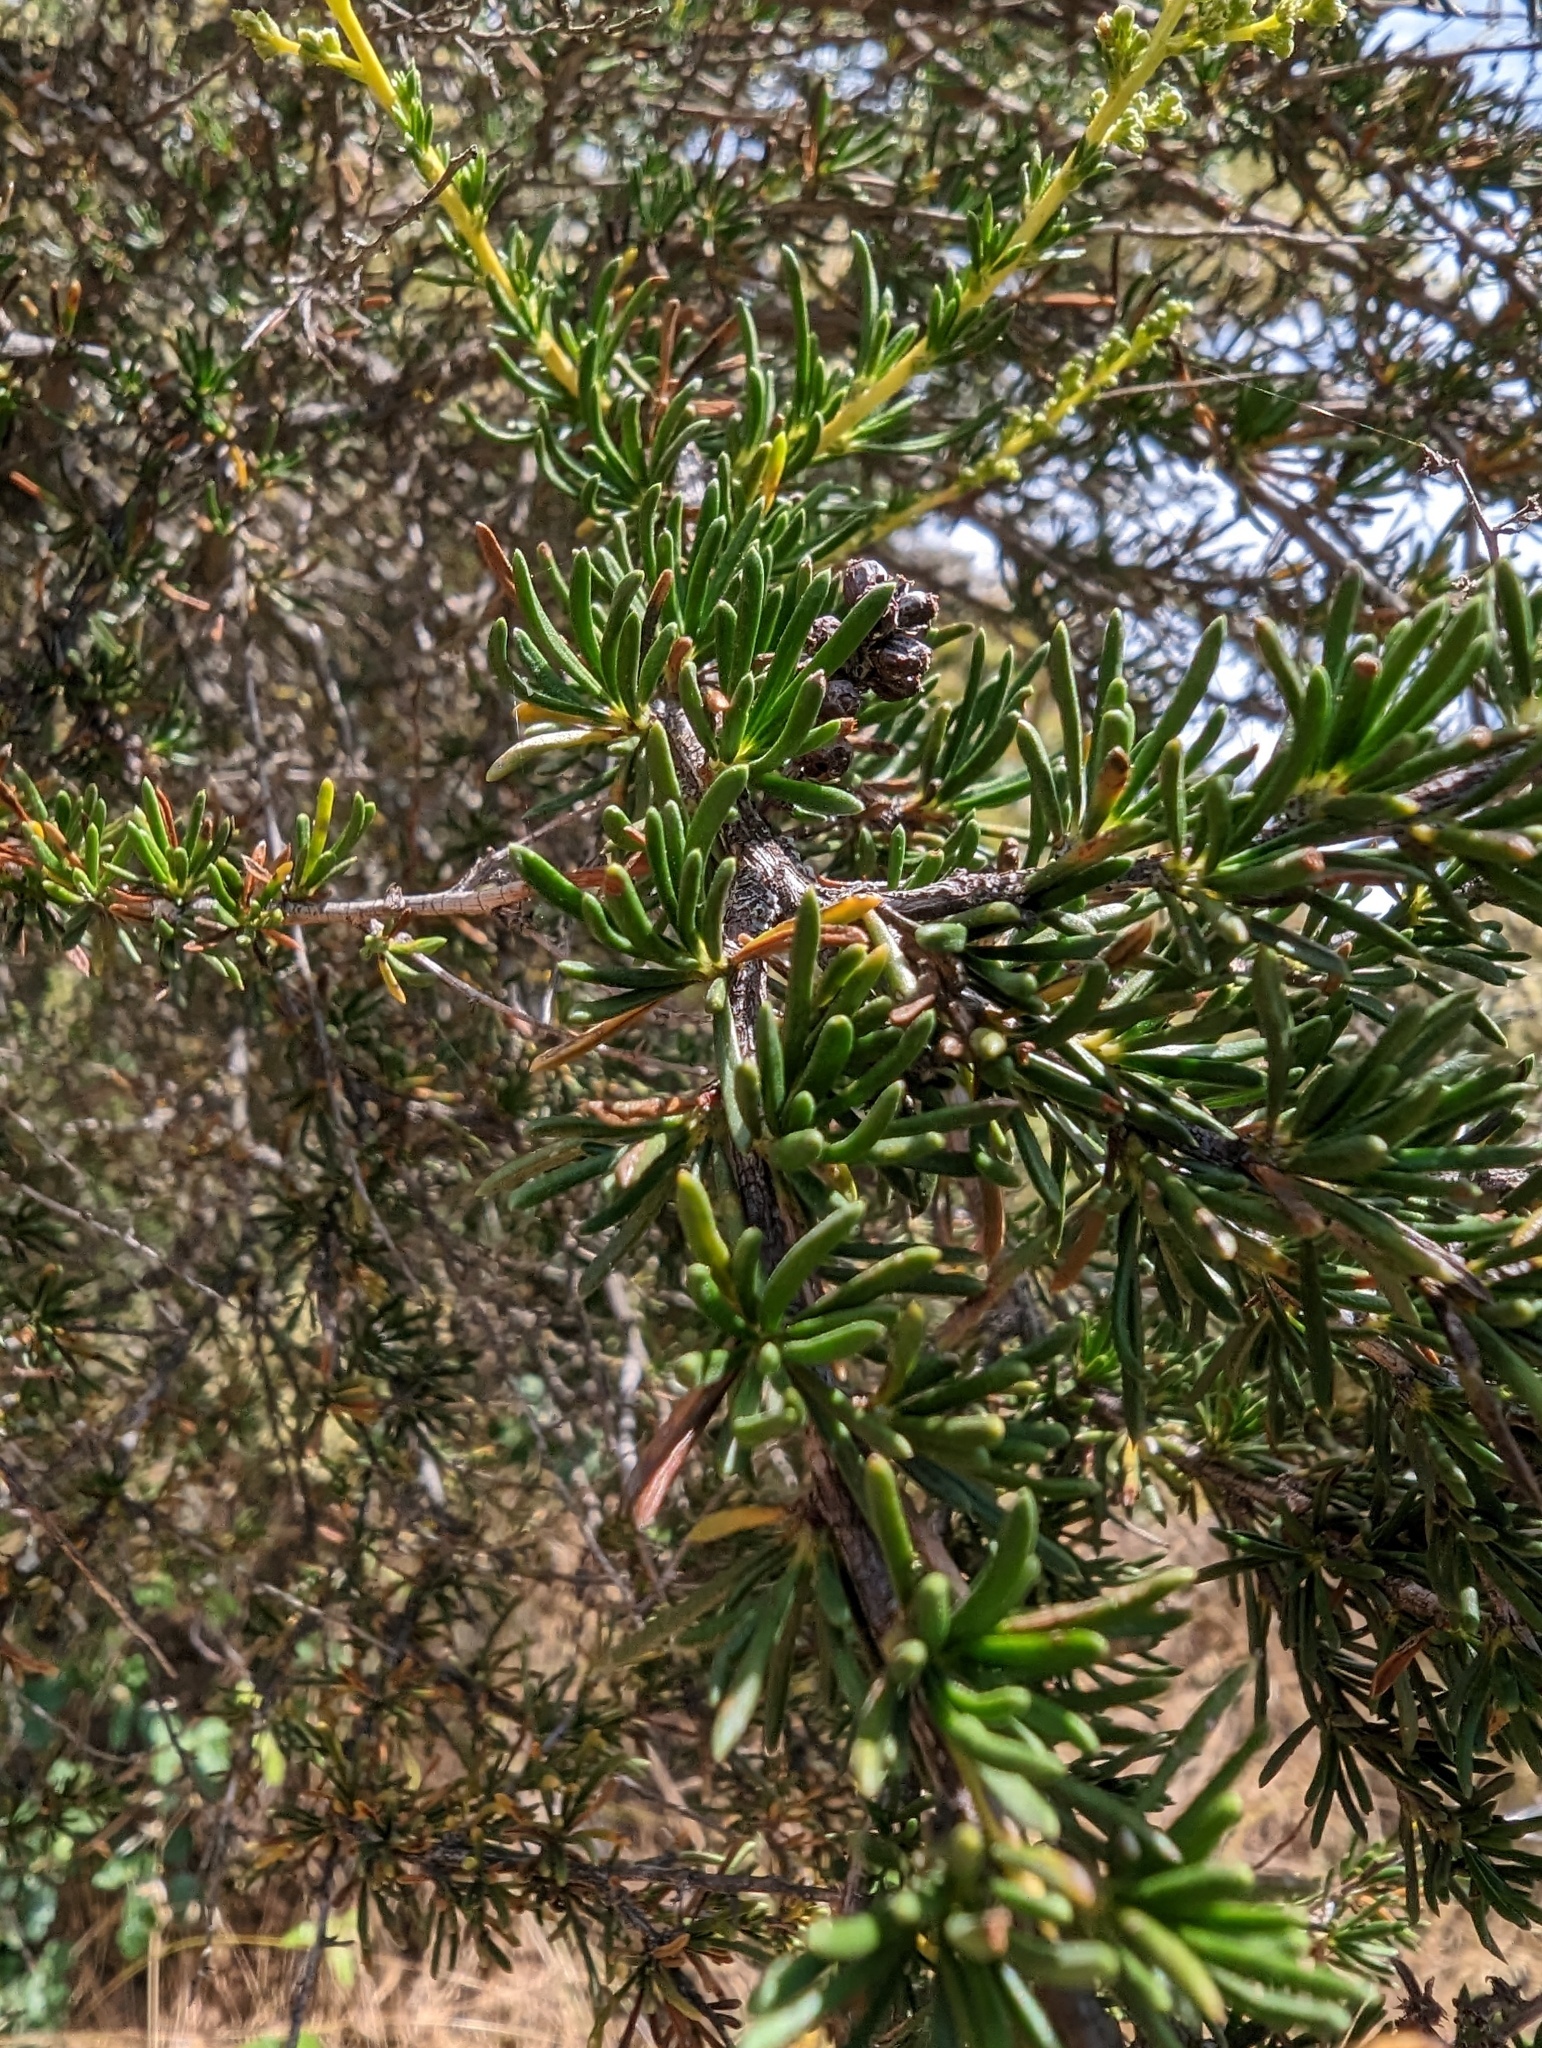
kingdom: Plantae
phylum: Tracheophyta
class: Magnoliopsida
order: Rosales
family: Rosaceae
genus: Adenostoma
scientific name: Adenostoma fasciculatum
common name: Chamise
